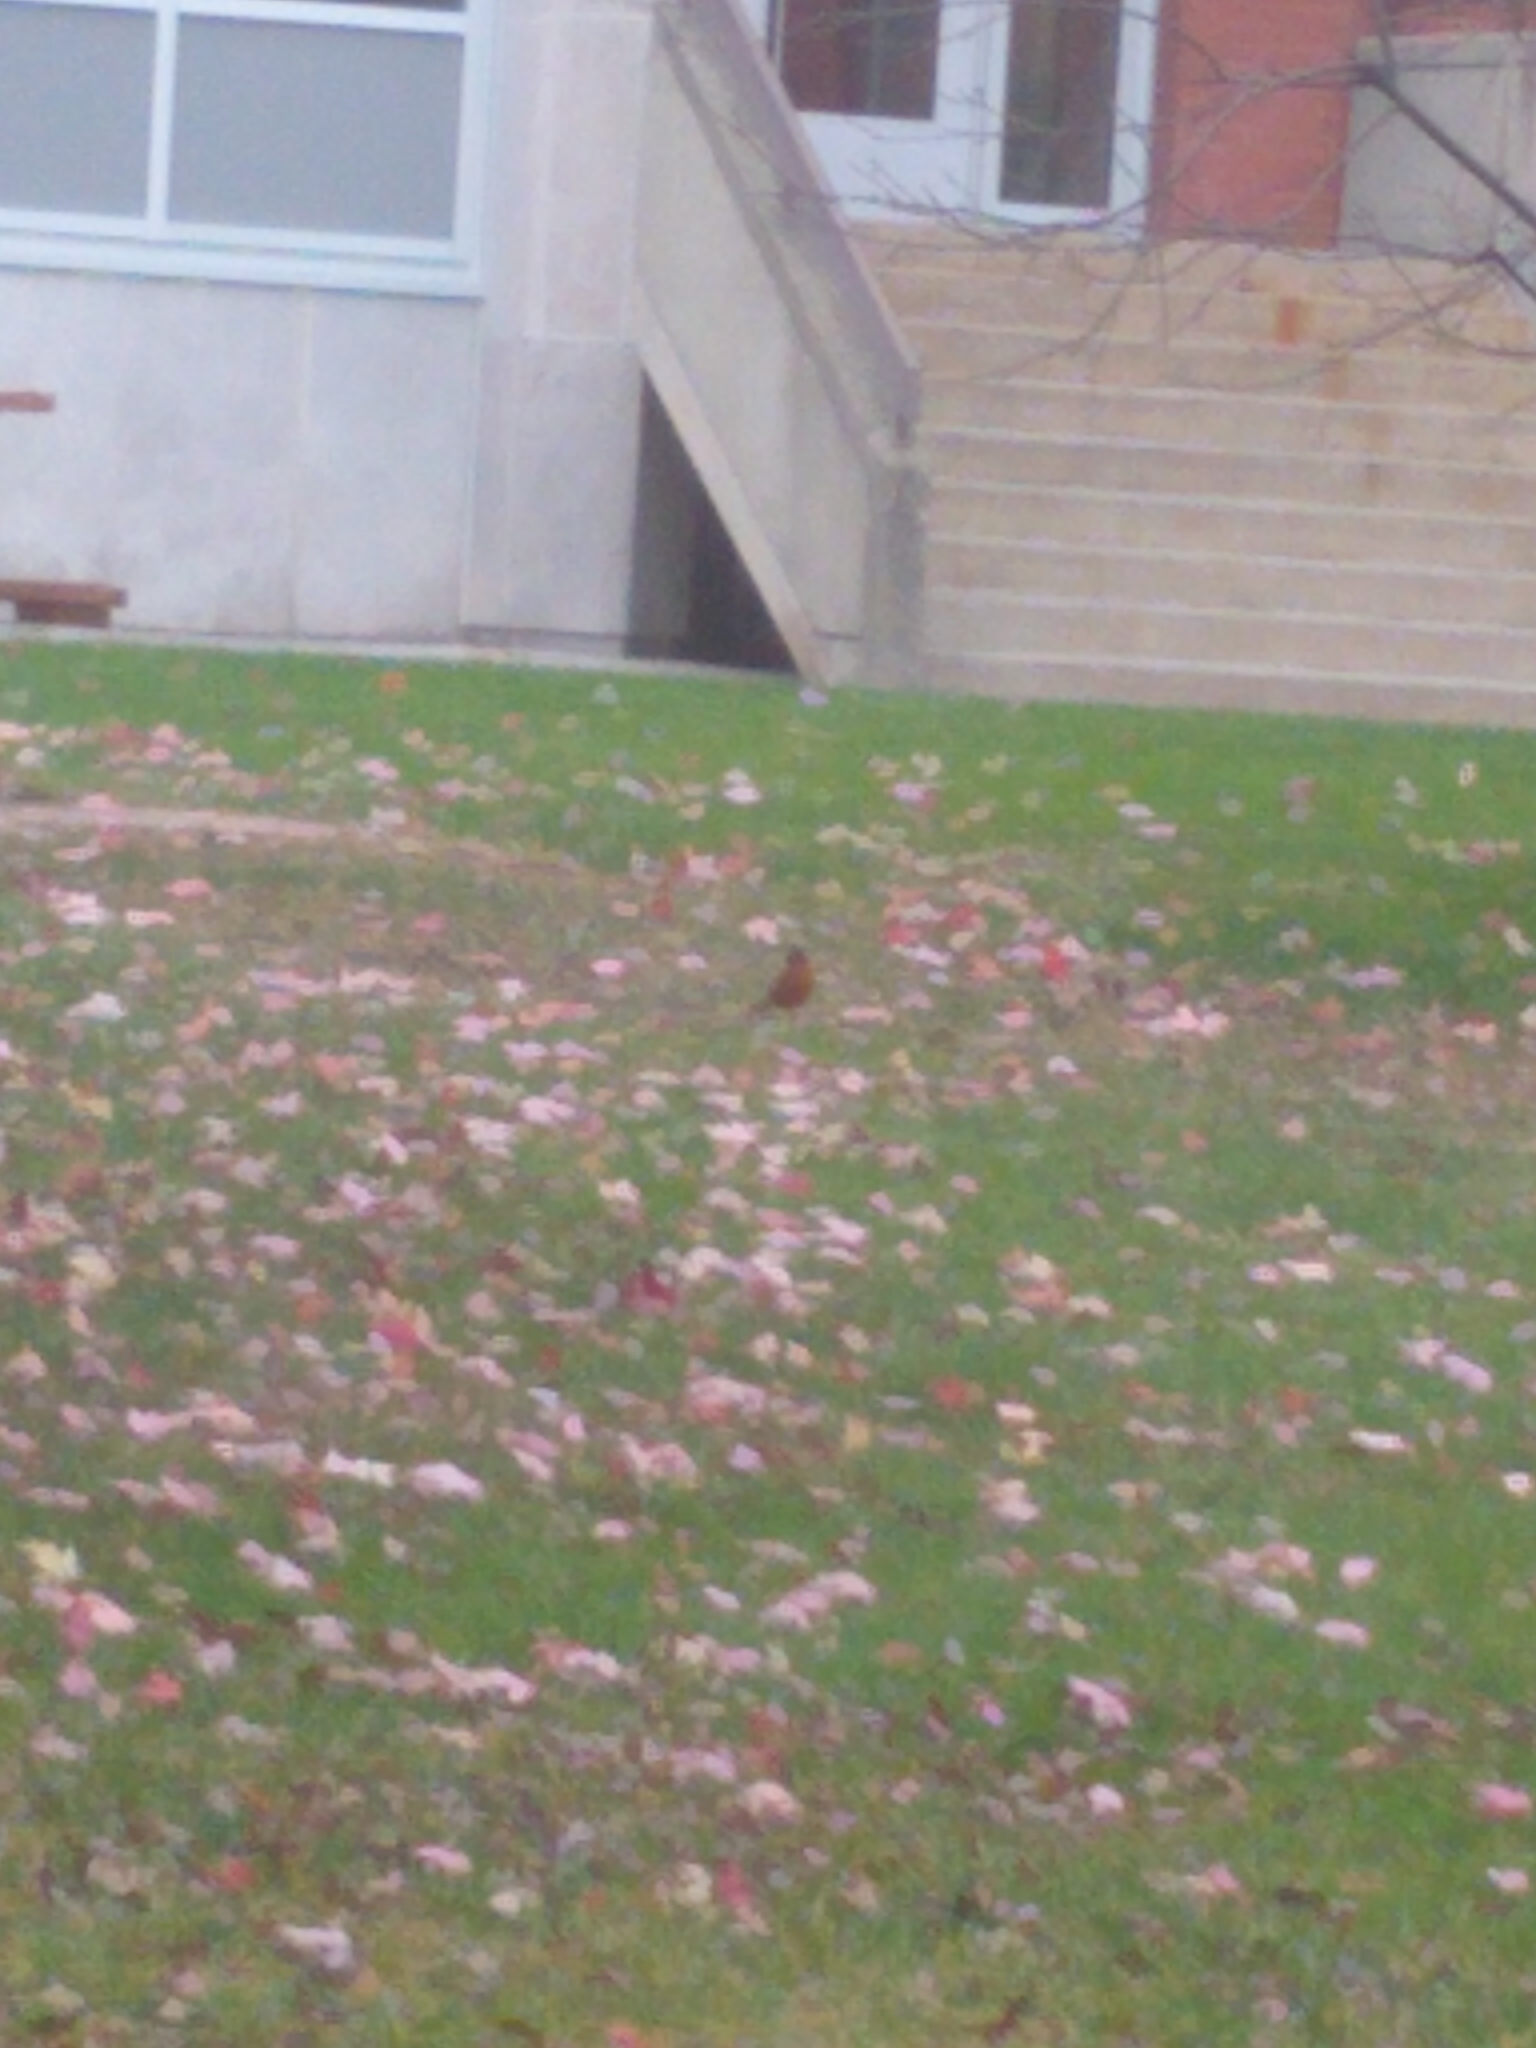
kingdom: Animalia
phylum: Chordata
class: Aves
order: Passeriformes
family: Turdidae
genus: Turdus
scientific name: Turdus migratorius
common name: American robin
